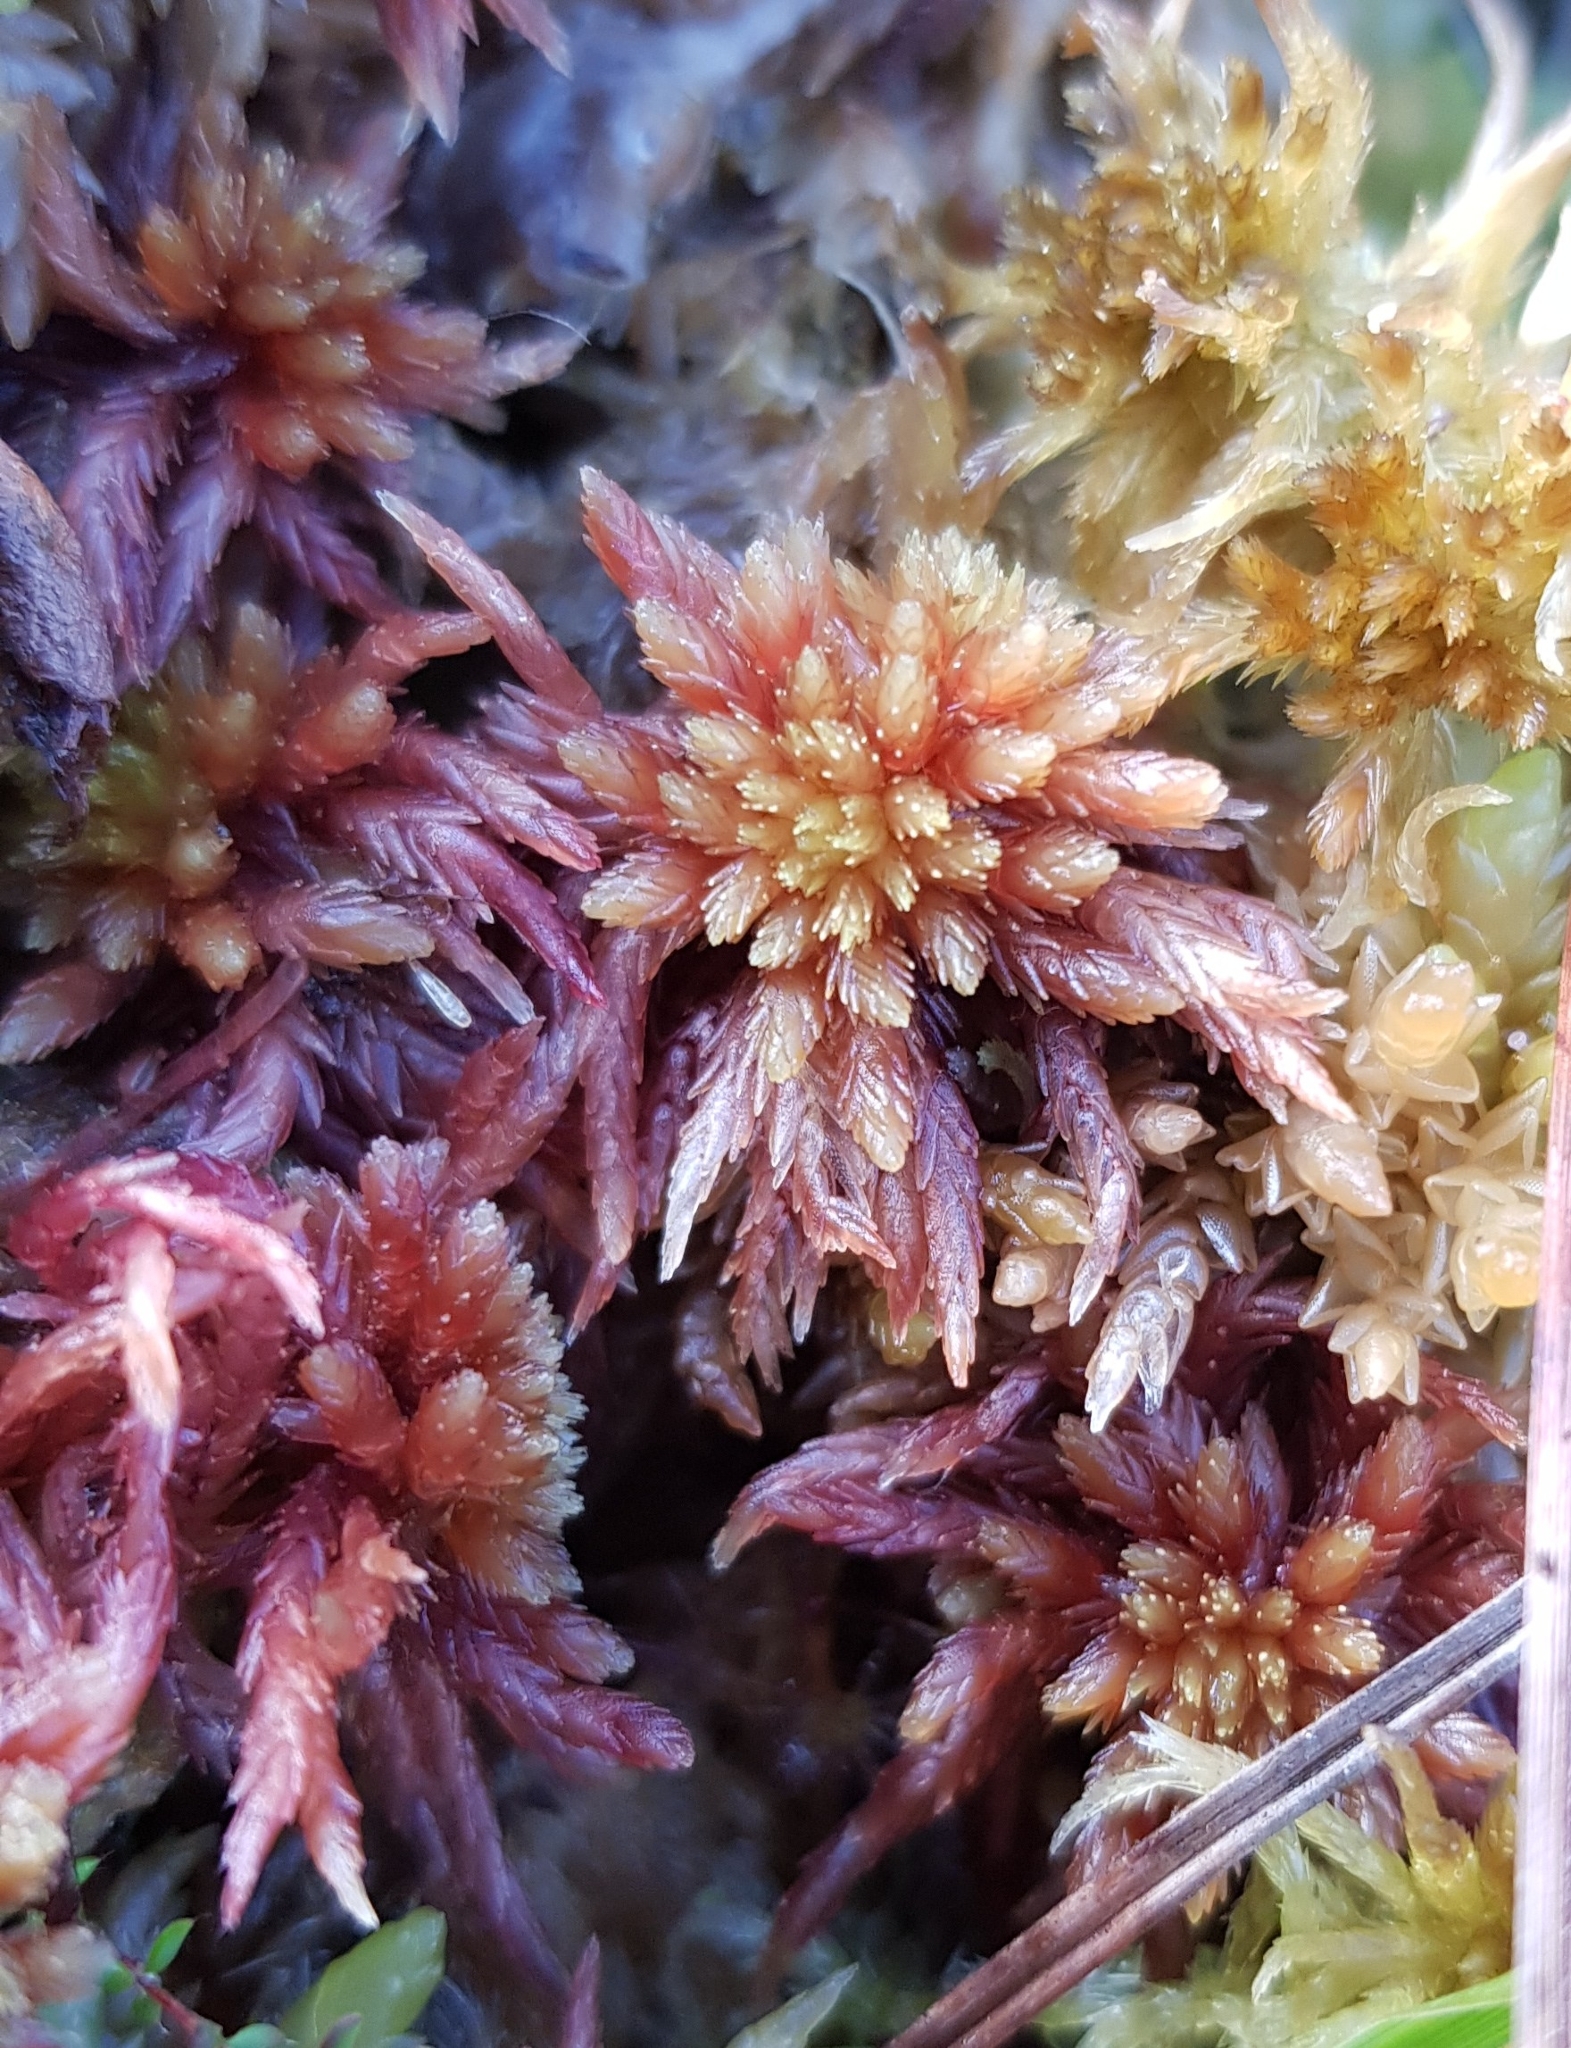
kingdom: Plantae
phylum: Bryophyta
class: Sphagnopsida
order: Sphagnales
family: Sphagnaceae
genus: Sphagnum
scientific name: Sphagnum subnitens
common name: Lustrous bog-moss
